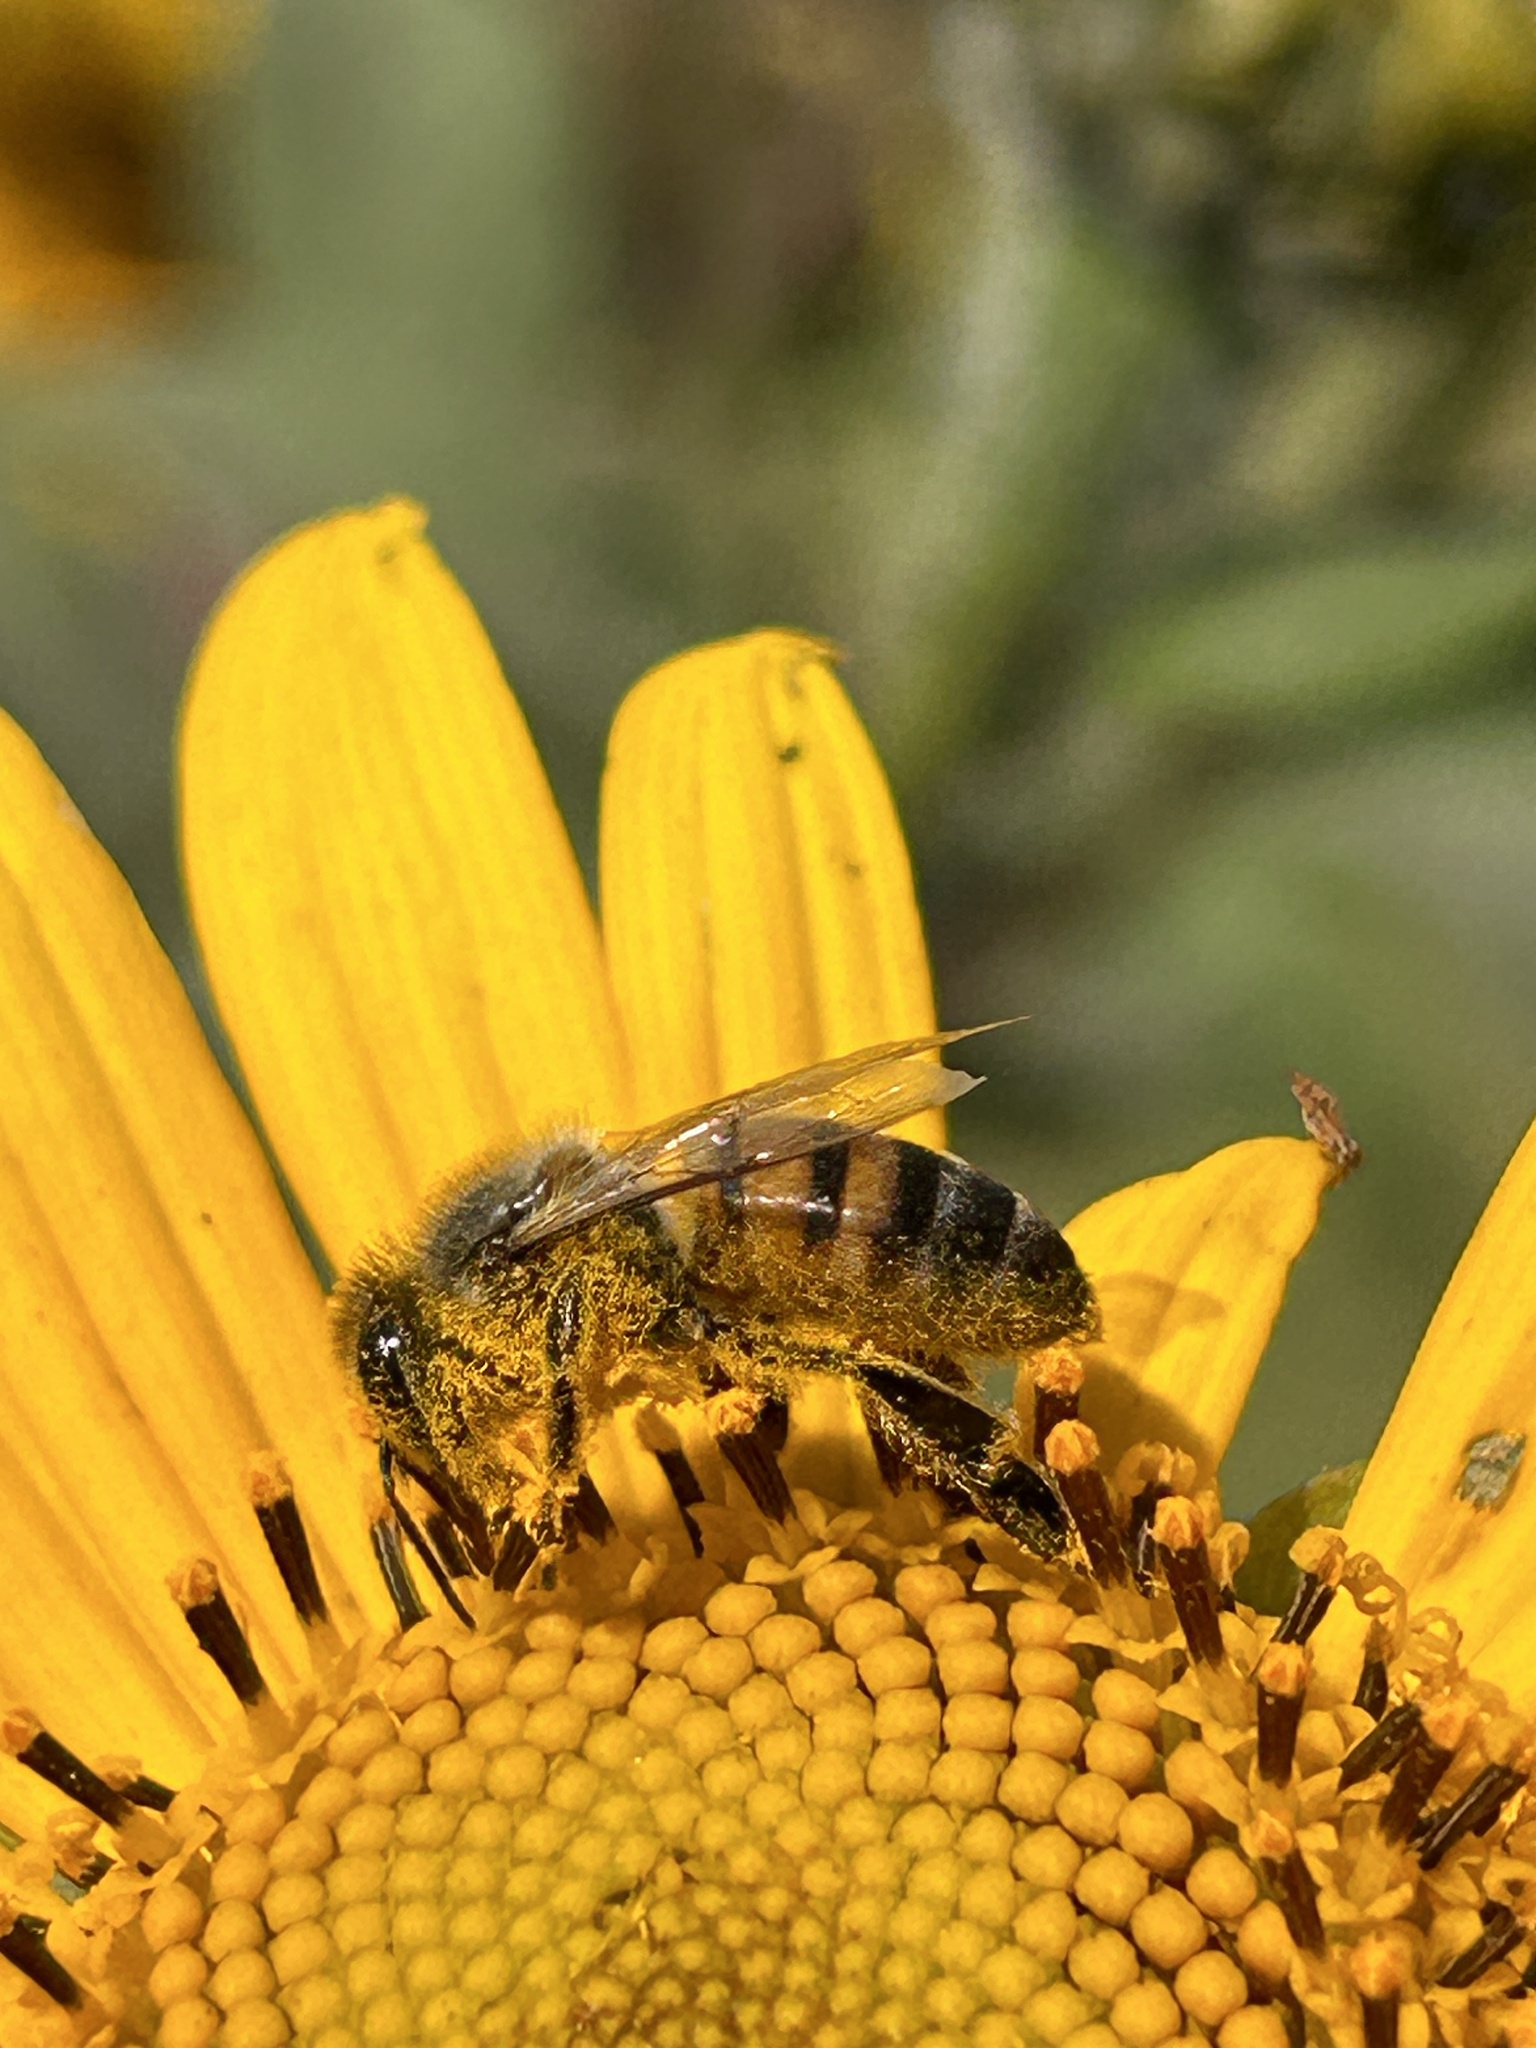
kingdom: Animalia
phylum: Arthropoda
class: Insecta
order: Hymenoptera
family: Apidae
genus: Apis
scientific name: Apis mellifera
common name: Honey bee
